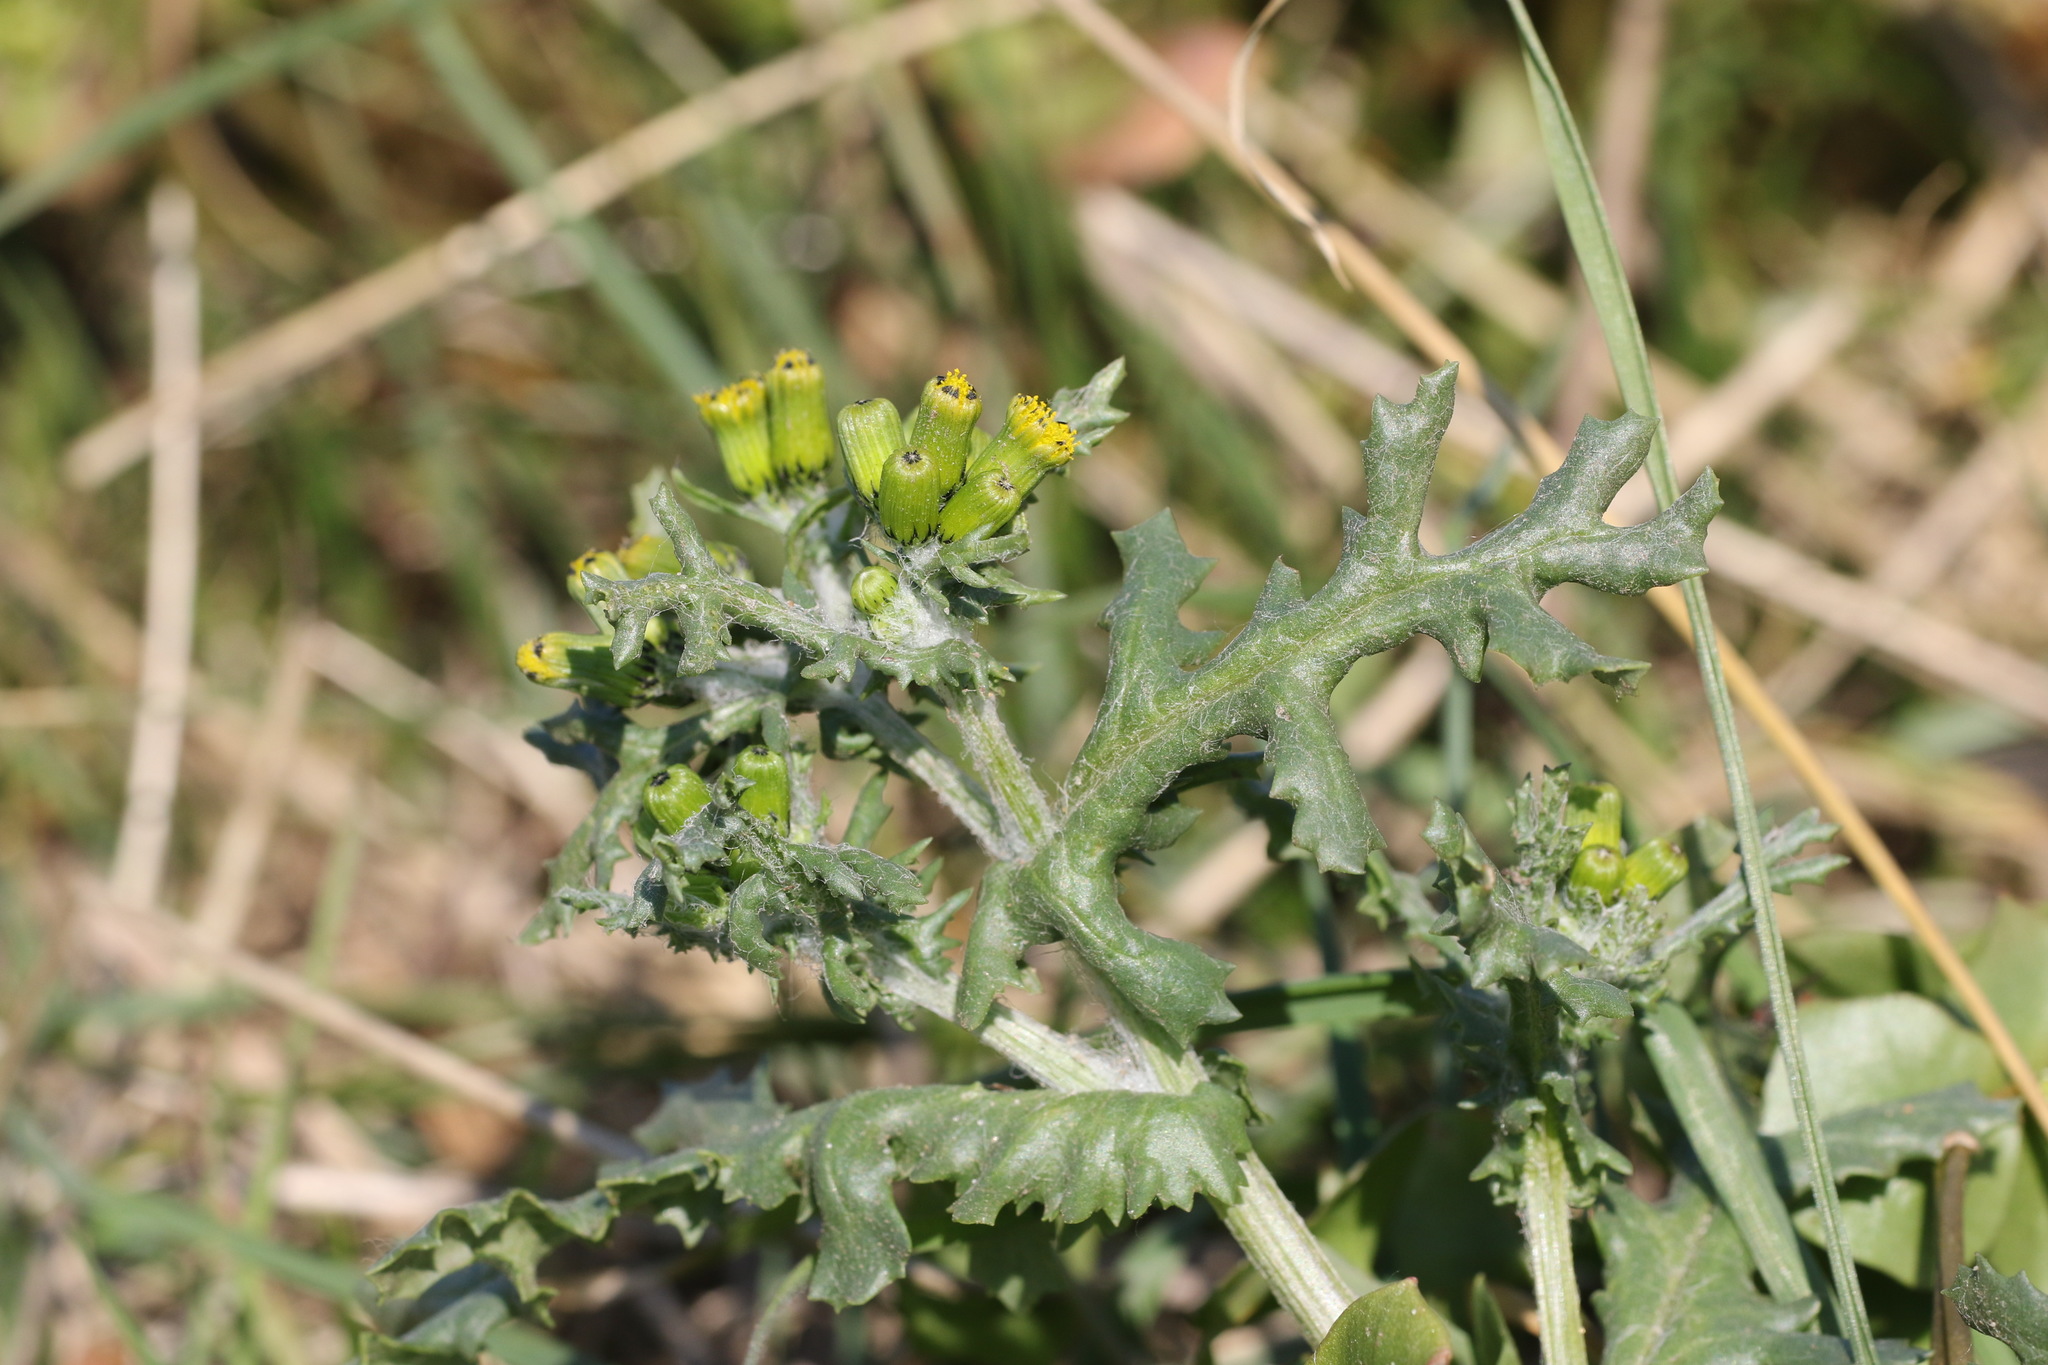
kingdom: Plantae
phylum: Tracheophyta
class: Magnoliopsida
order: Asterales
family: Asteraceae
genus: Senecio
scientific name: Senecio vulgaris
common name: Old-man-in-the-spring
